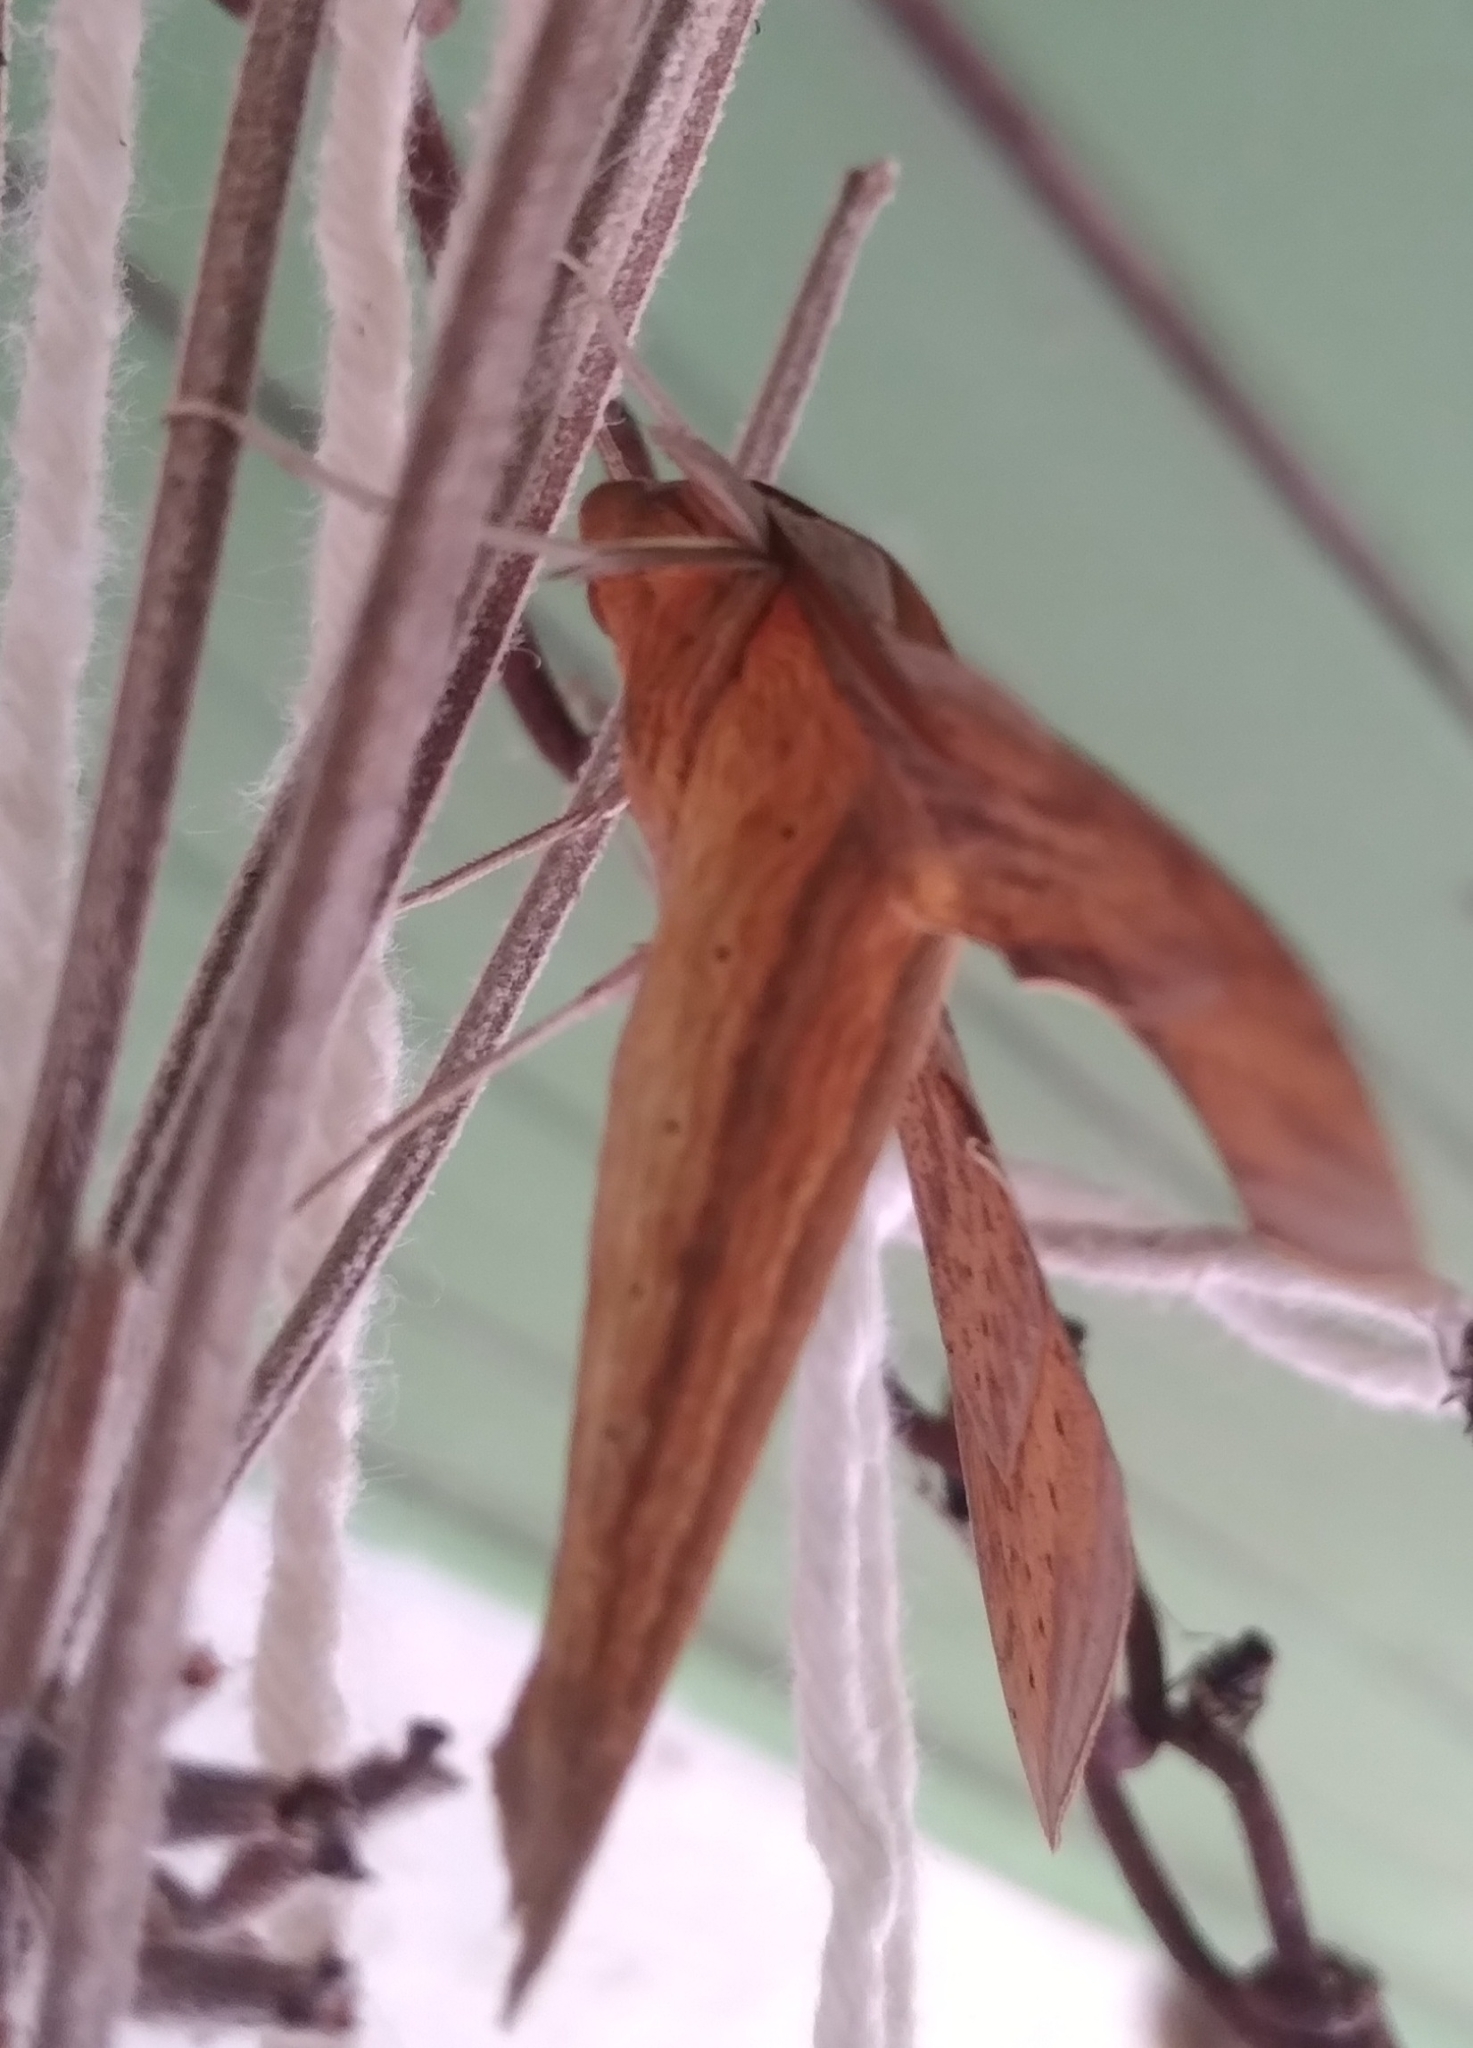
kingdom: Animalia
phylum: Arthropoda
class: Insecta
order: Lepidoptera
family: Sphingidae
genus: Xylophanes
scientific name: Xylophanes tersa
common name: Tersa sphinx
